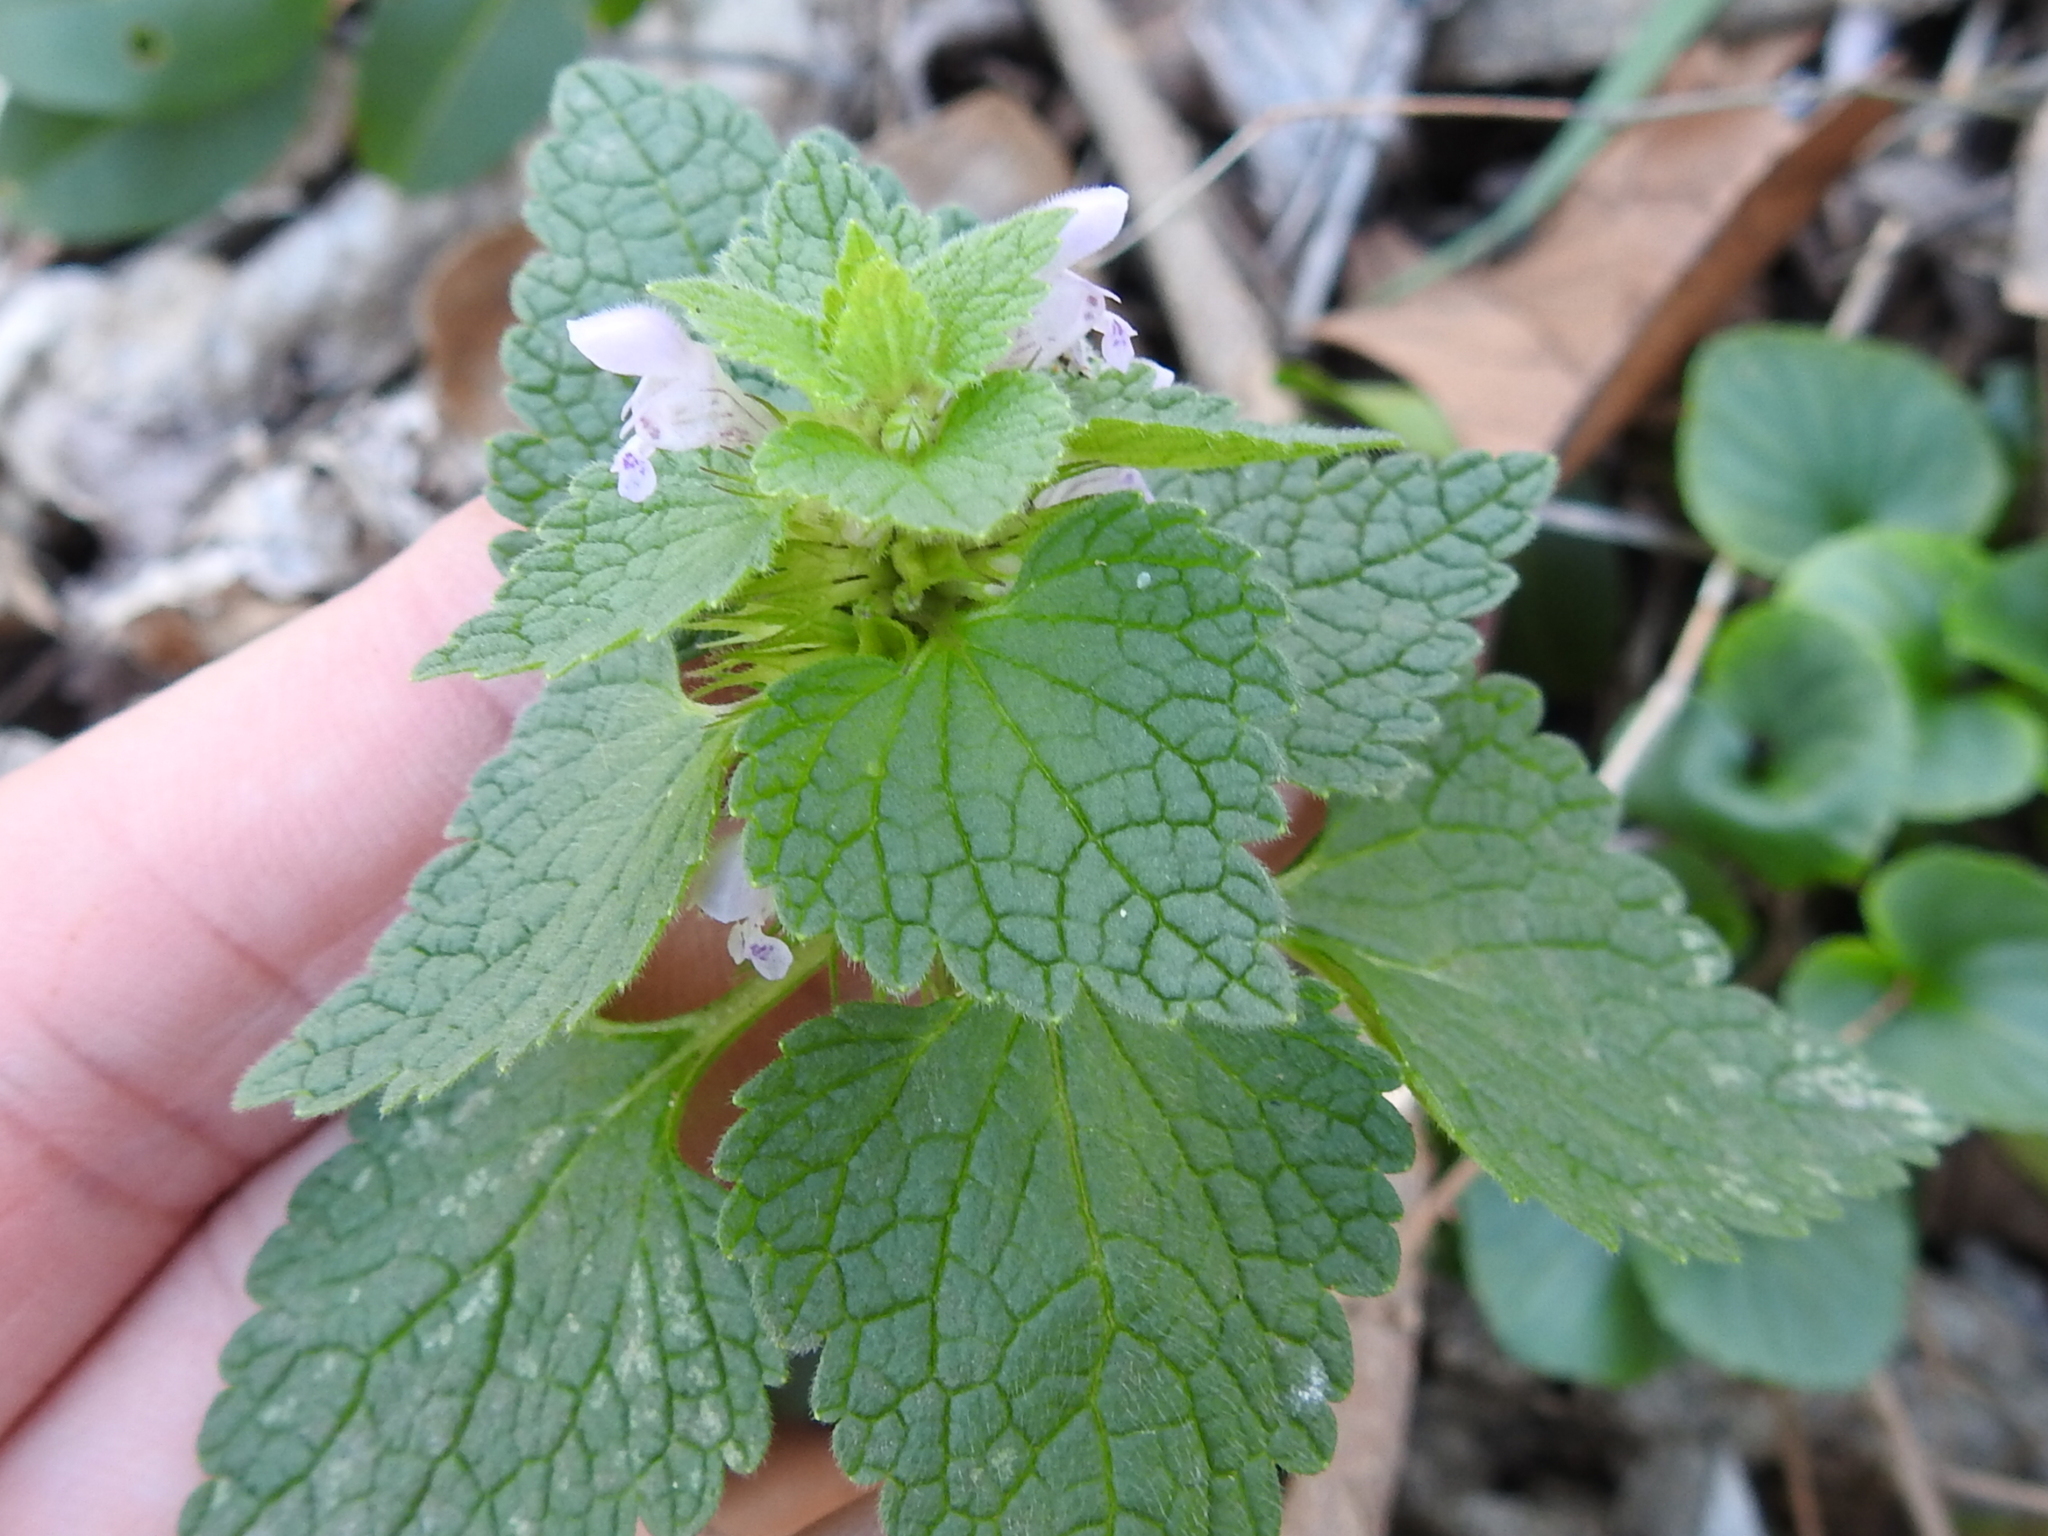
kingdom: Plantae
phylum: Tracheophyta
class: Magnoliopsida
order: Lamiales
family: Lamiaceae
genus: Lamium
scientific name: Lamium purpureum
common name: Red dead-nettle
